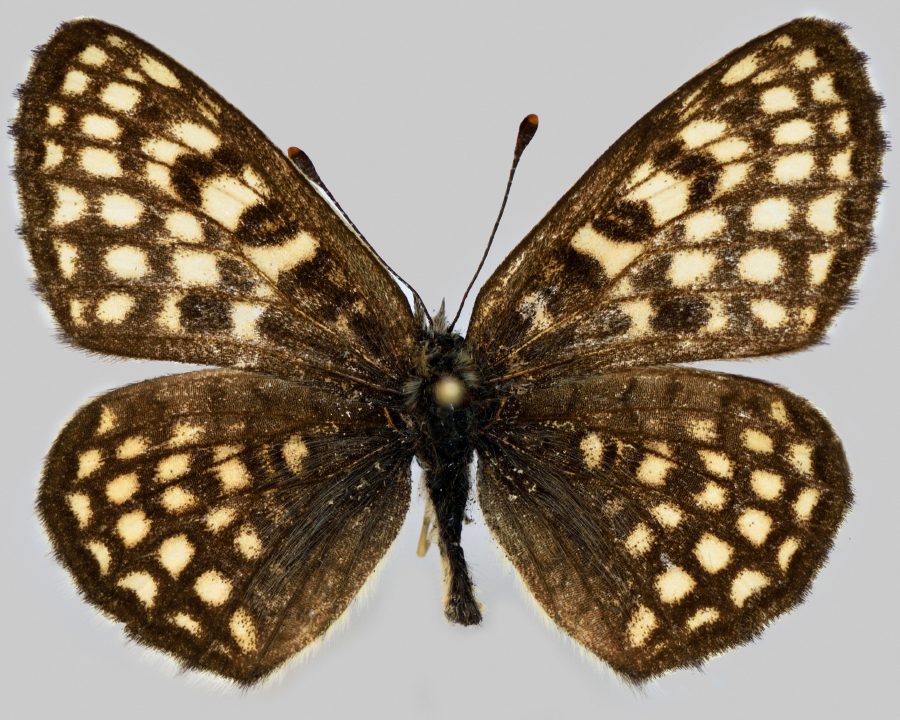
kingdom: Animalia
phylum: Arthropoda
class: Insecta
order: Lepidoptera
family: Nymphalidae
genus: Melitaea
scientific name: Melitaea athalia
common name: Heath fritillary
